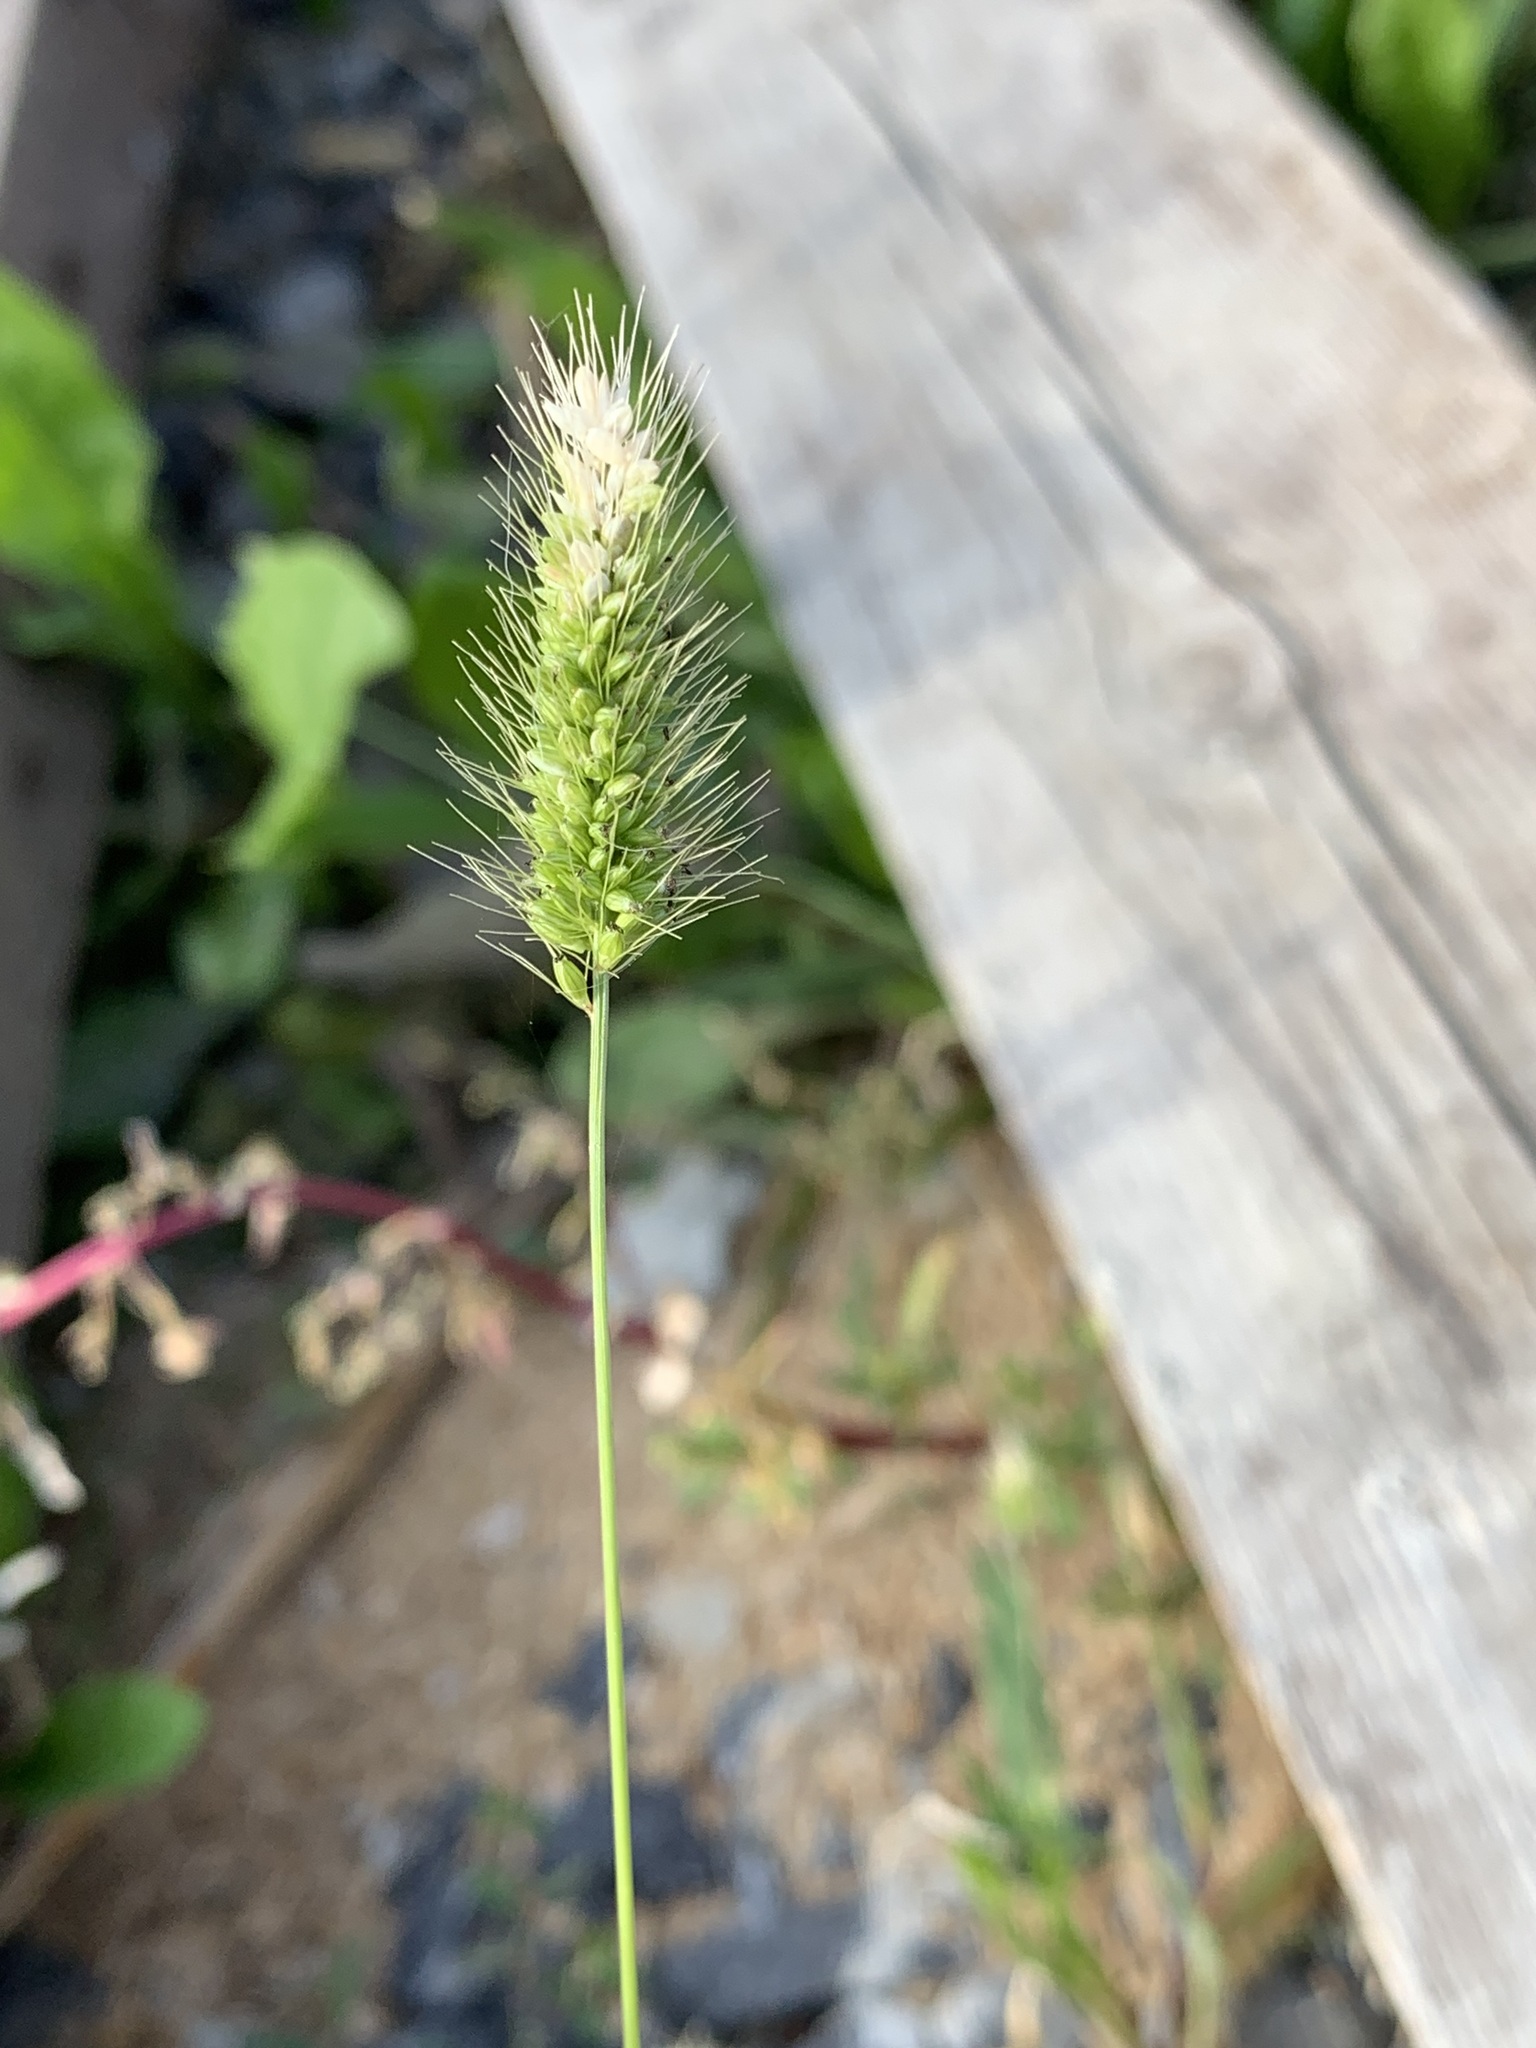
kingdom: Plantae
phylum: Tracheophyta
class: Liliopsida
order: Poales
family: Poaceae
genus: Setaria
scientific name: Setaria viridis
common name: Green bristlegrass
